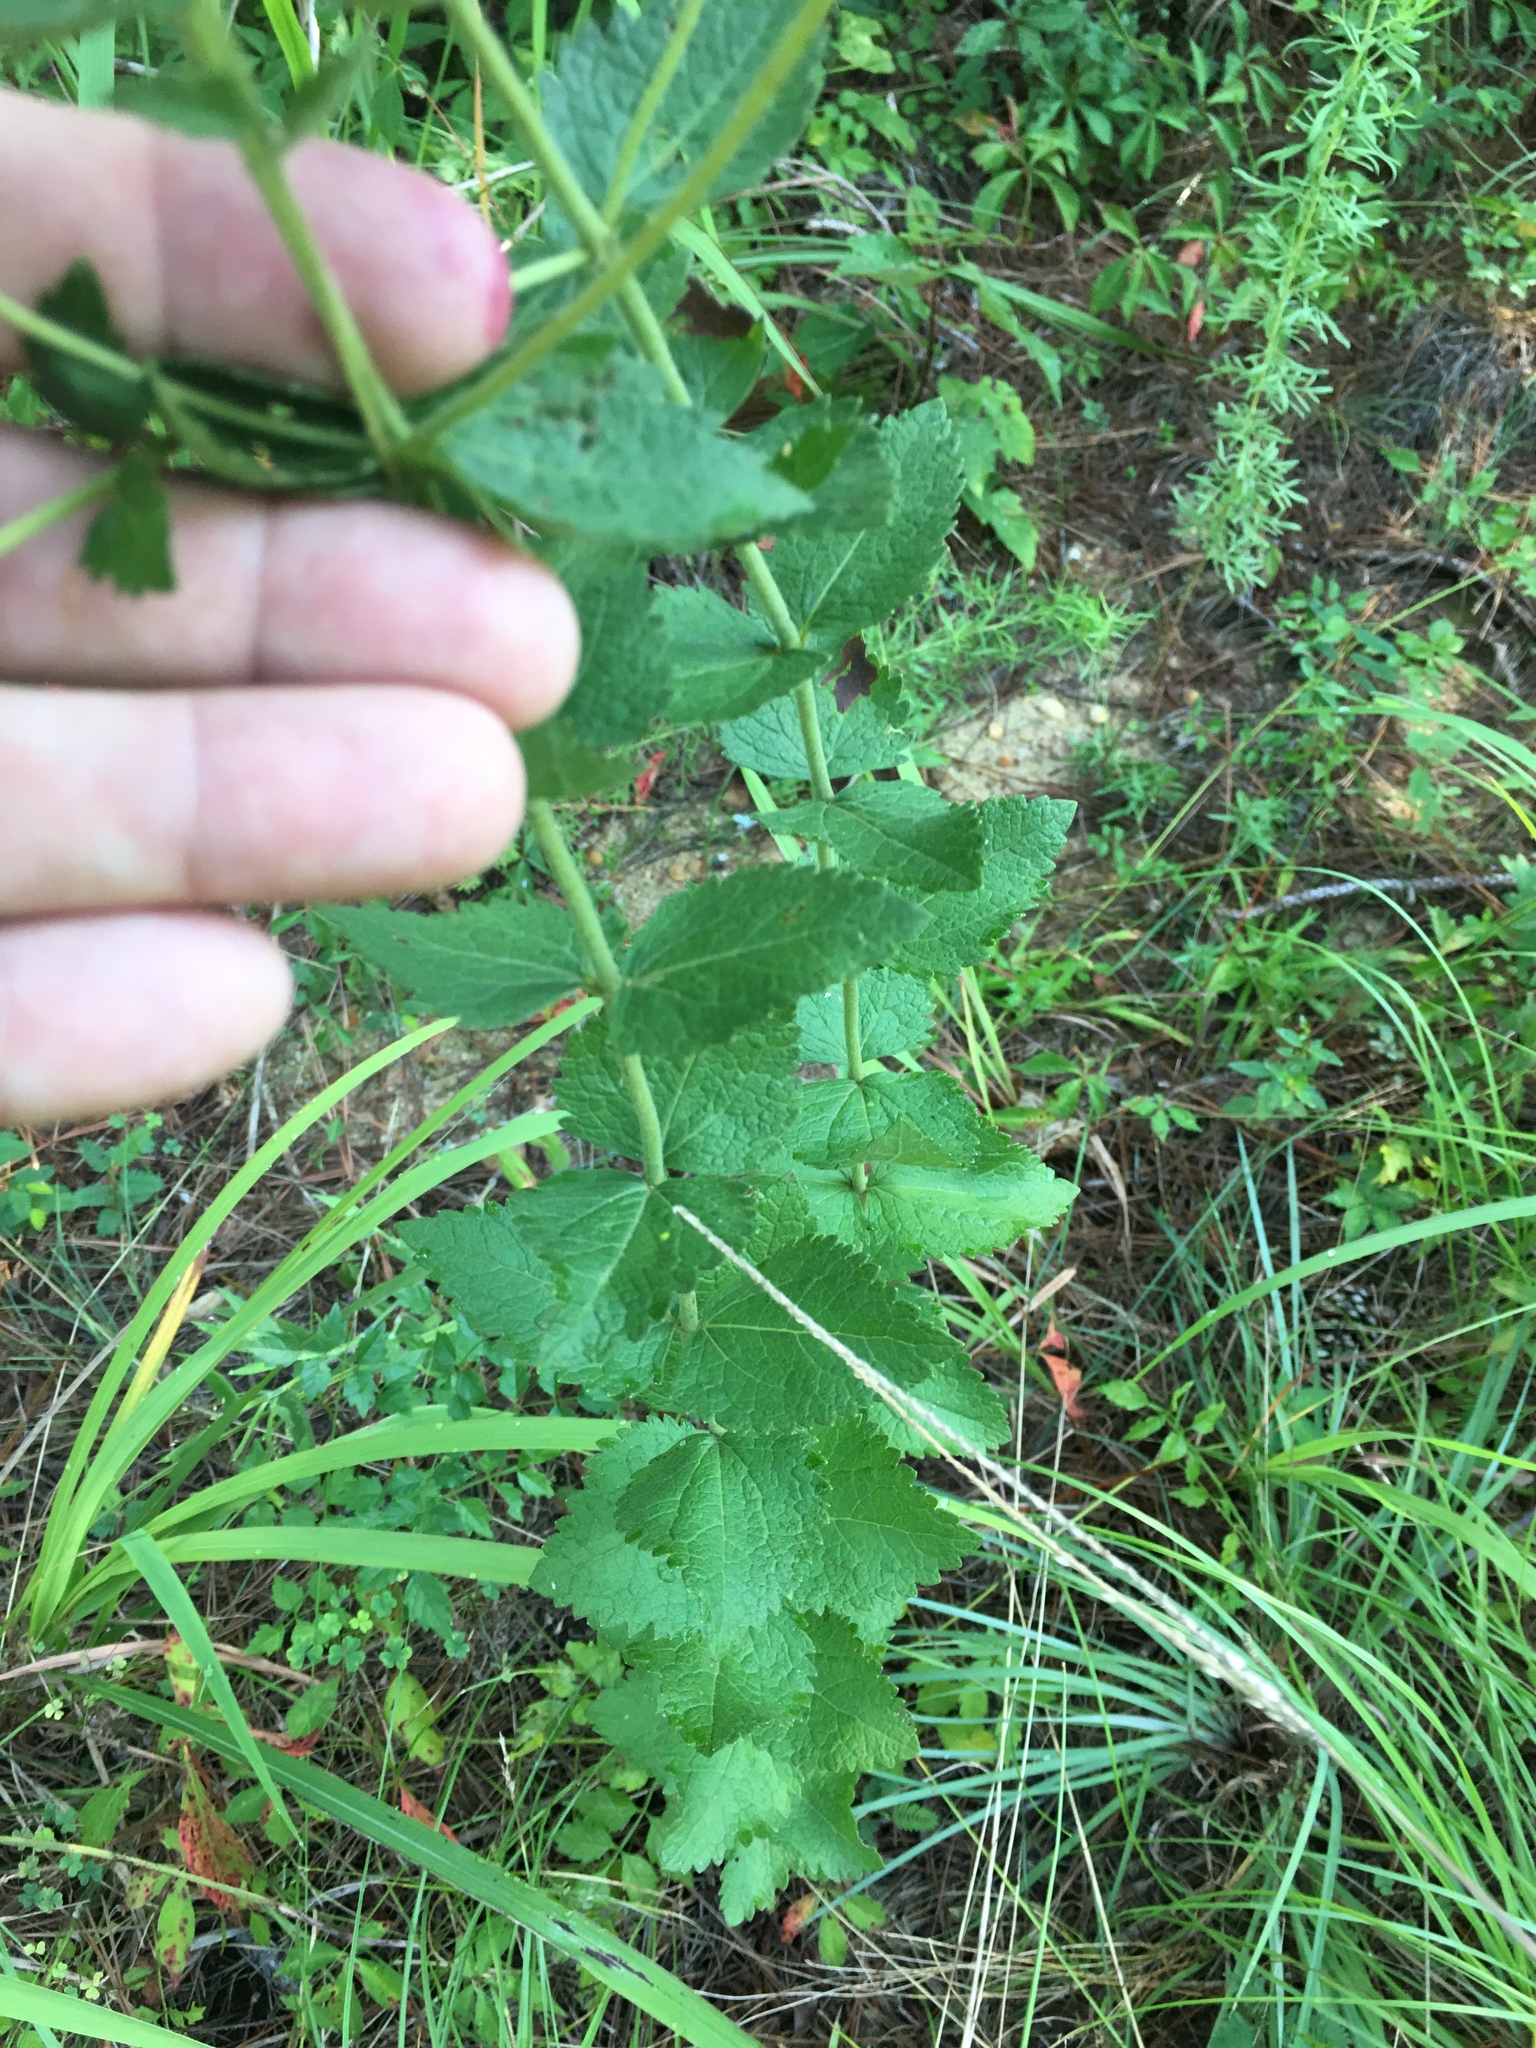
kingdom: Plantae
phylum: Tracheophyta
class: Magnoliopsida
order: Asterales
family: Asteraceae
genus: Eupatorium
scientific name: Eupatorium rotundifolium
